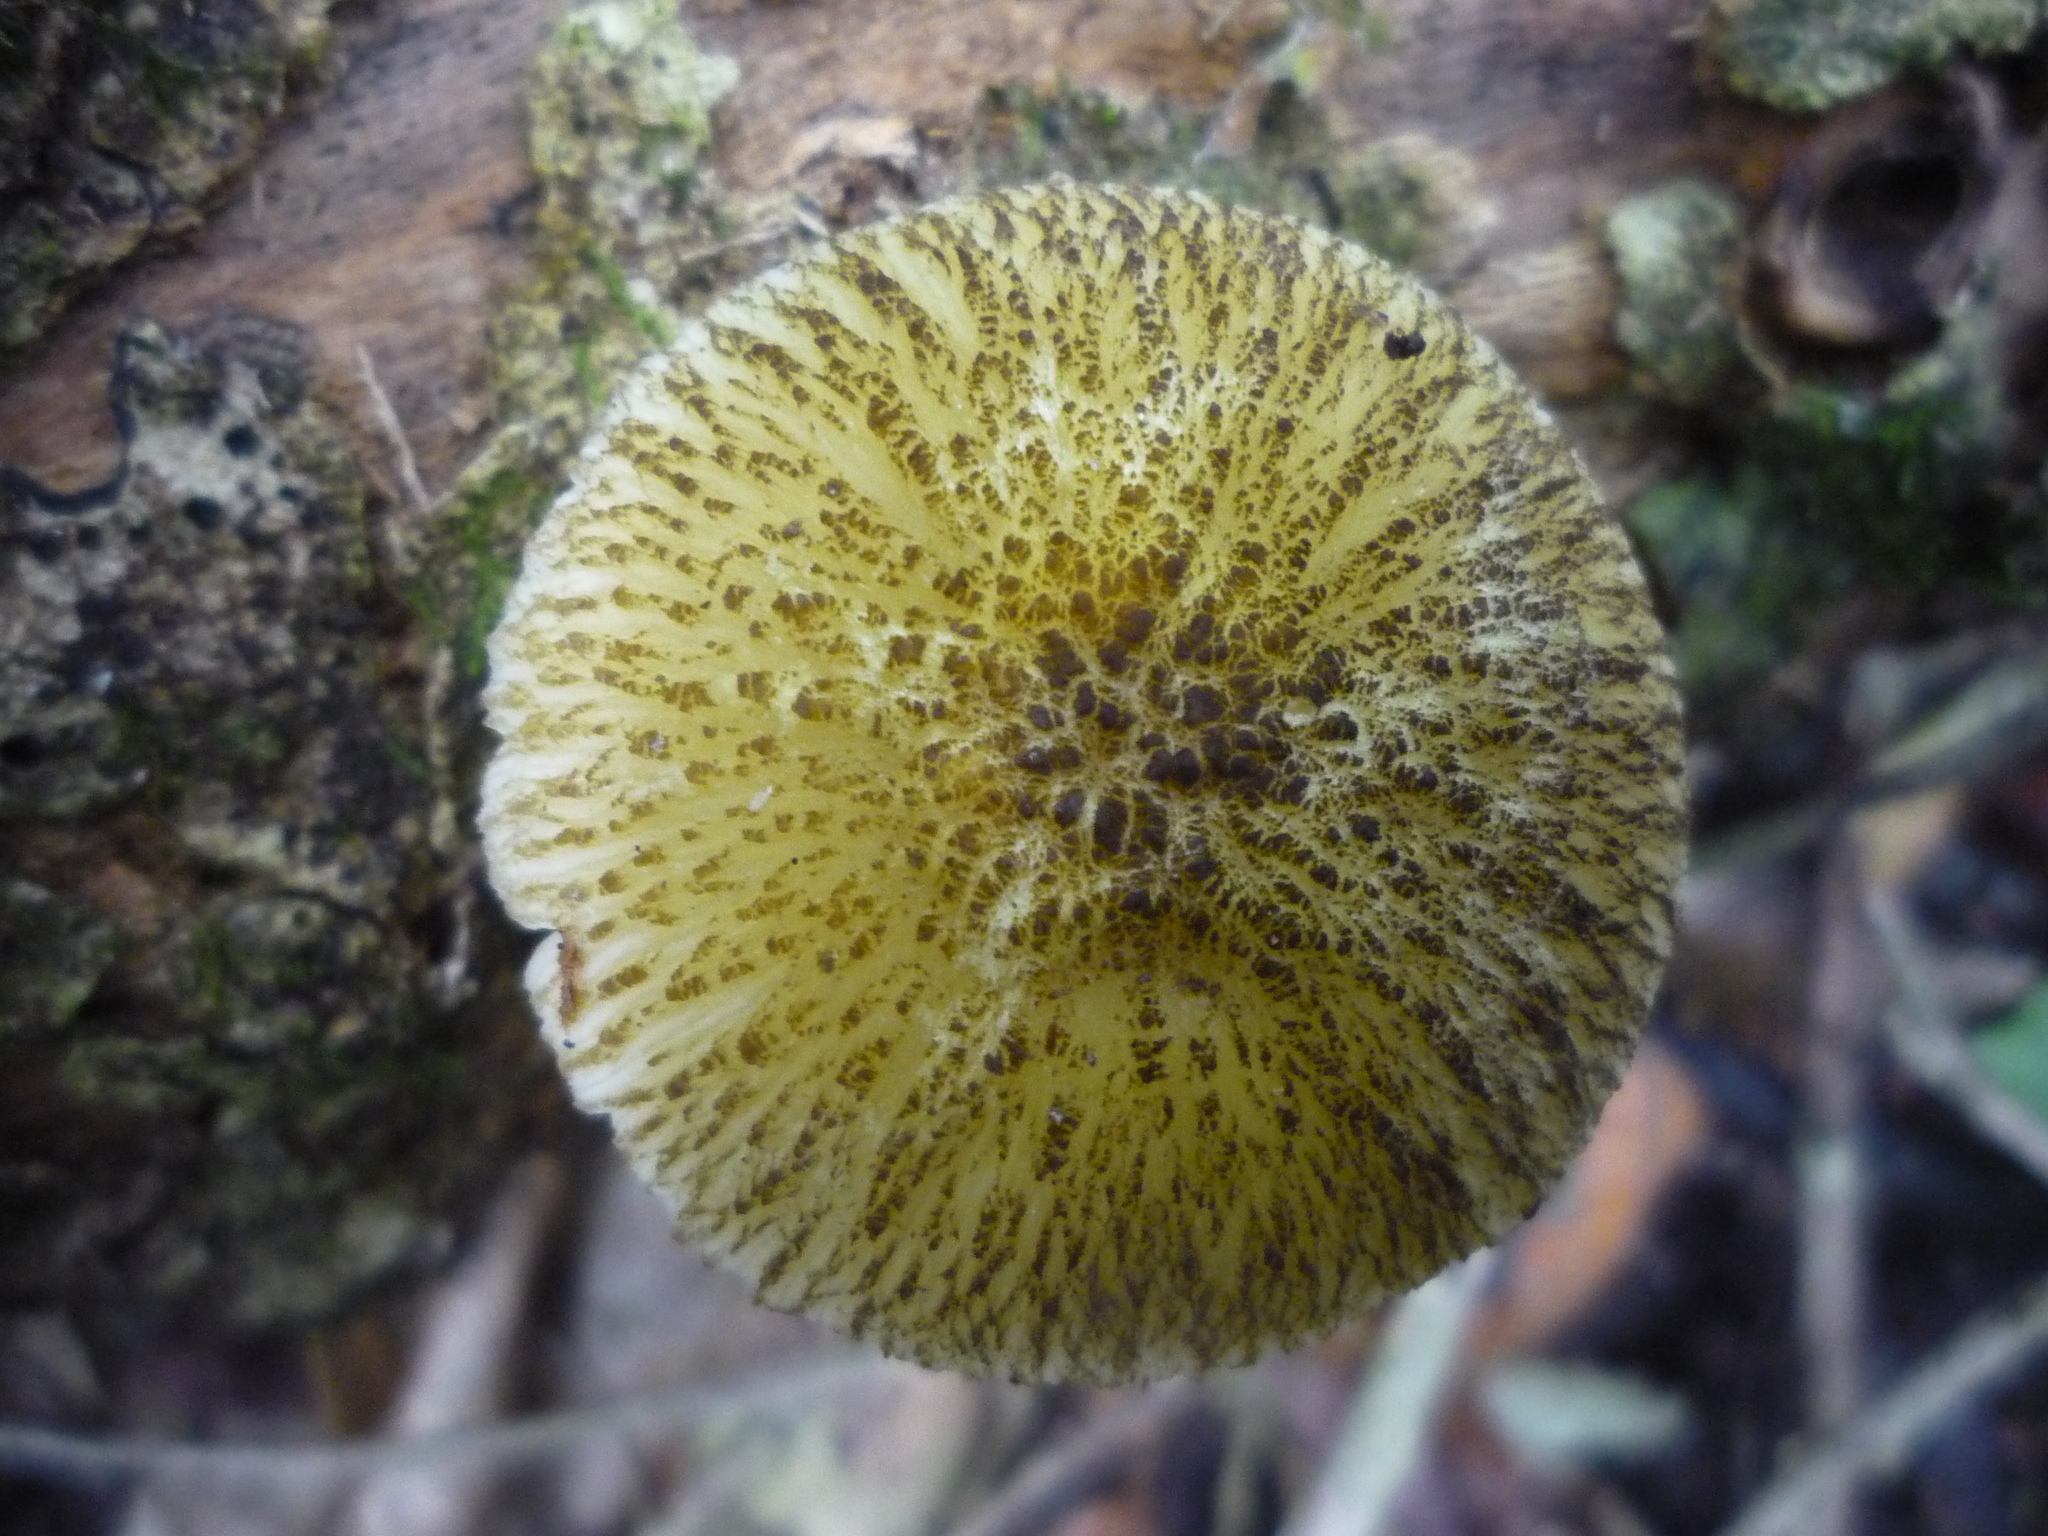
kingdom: Fungi
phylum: Basidiomycota
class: Agaricomycetes
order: Agaricales
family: Pluteaceae
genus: Pluteus
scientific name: Pluteus
